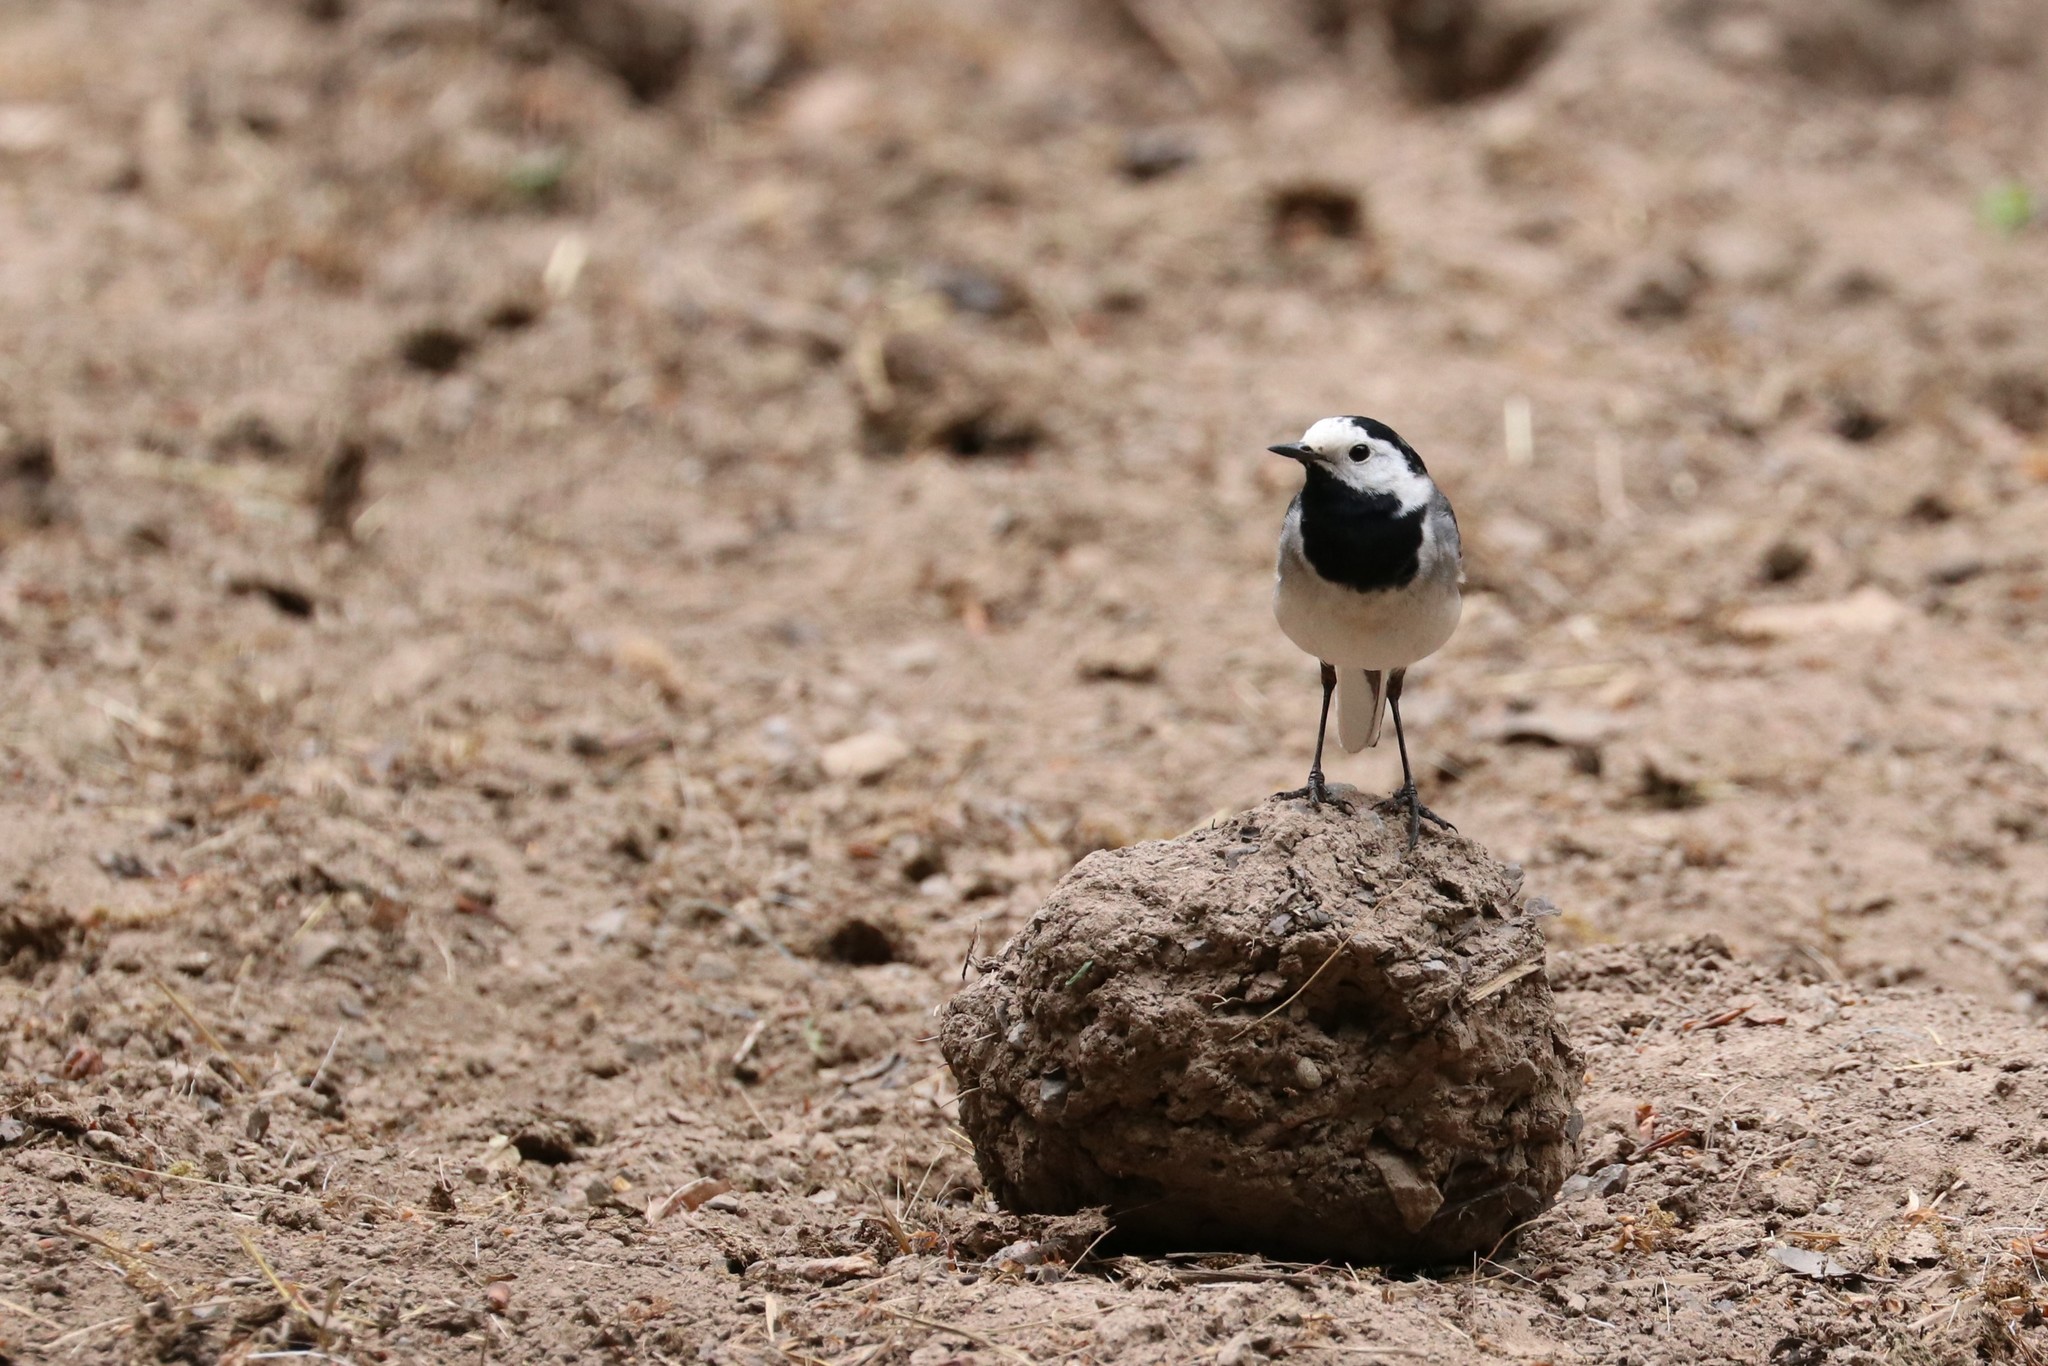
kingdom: Animalia
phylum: Chordata
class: Aves
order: Passeriformes
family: Motacillidae
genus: Motacilla
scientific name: Motacilla alba
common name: White wagtail
